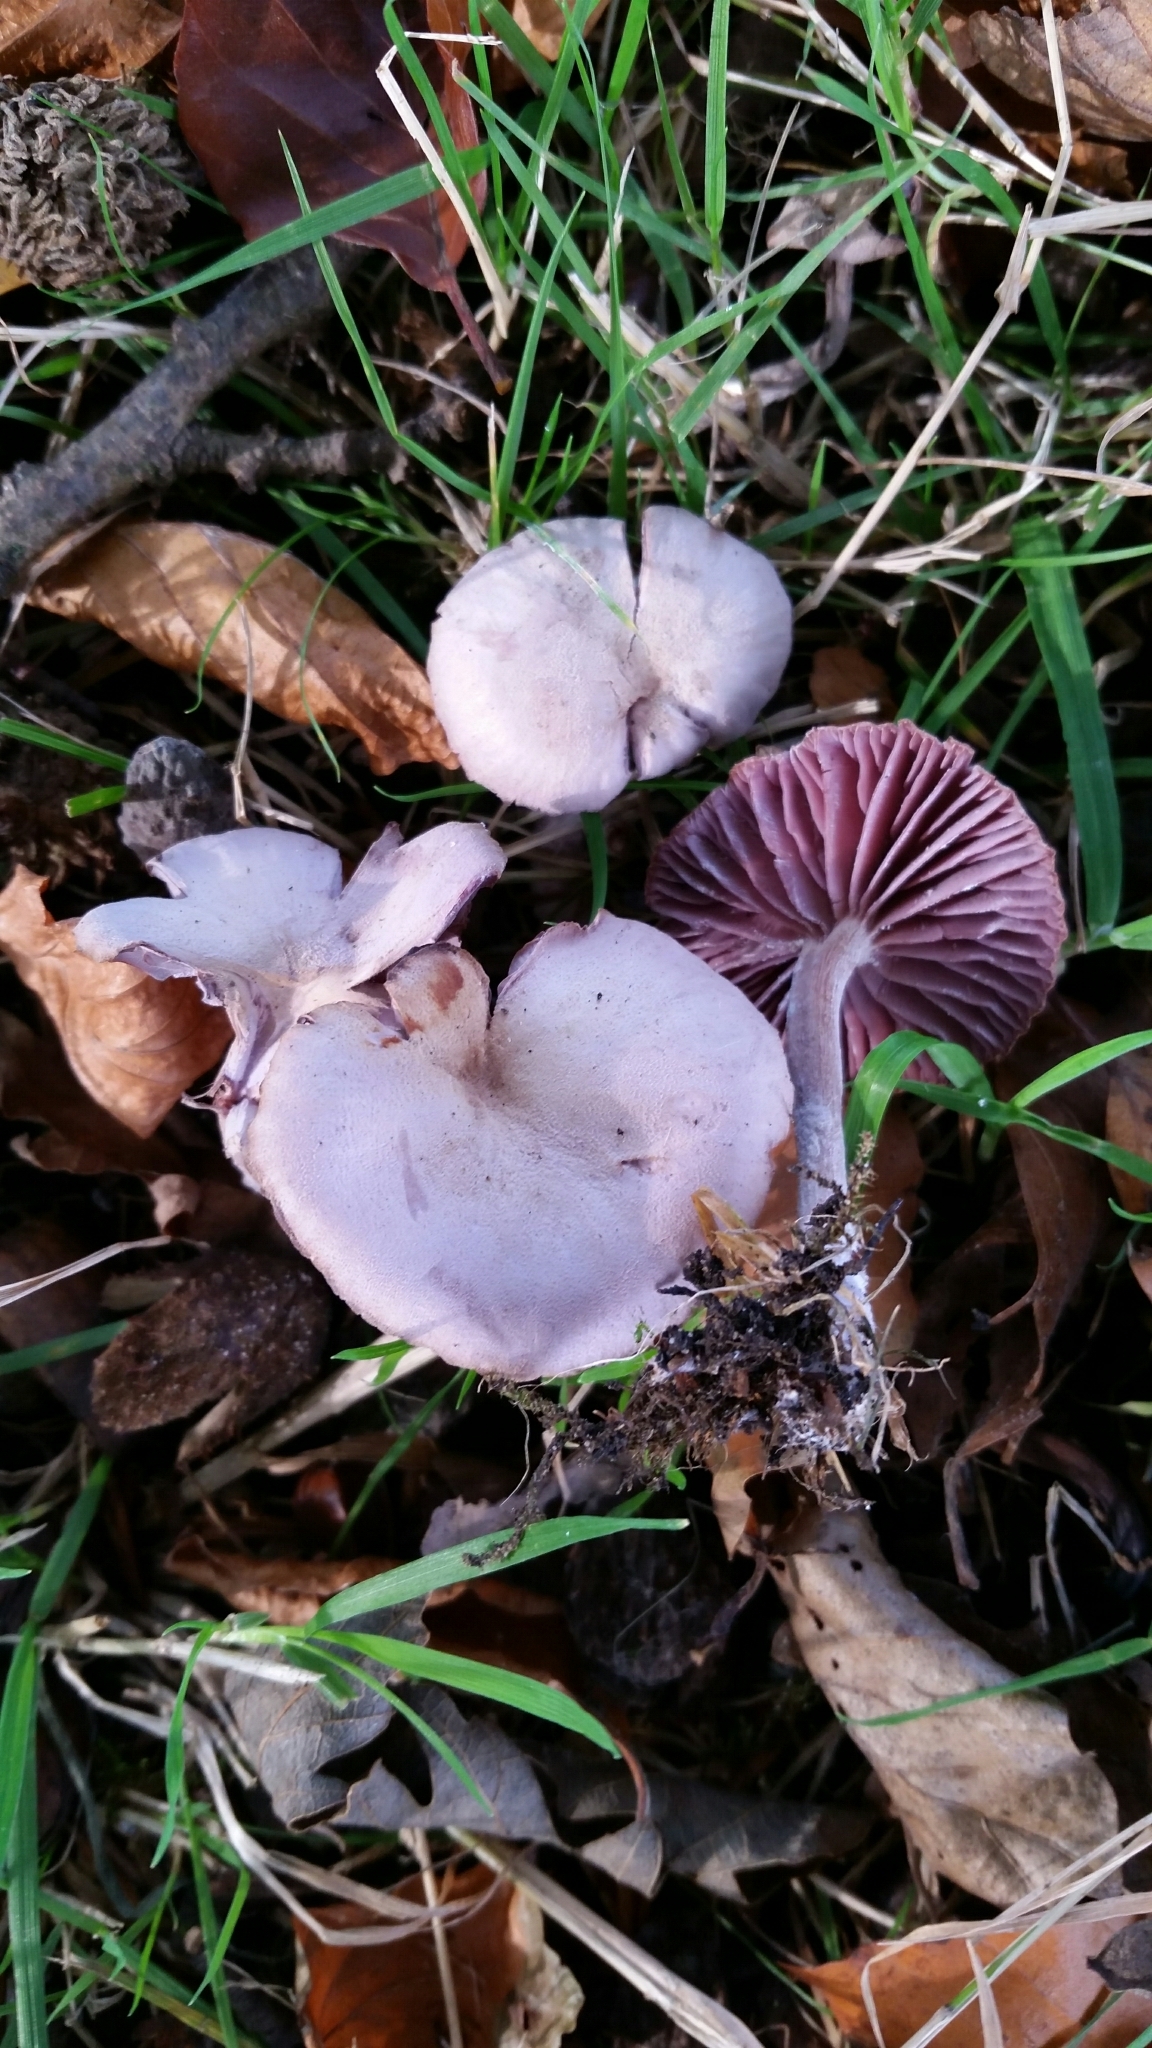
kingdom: Fungi
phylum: Basidiomycota
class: Agaricomycetes
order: Agaricales
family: Hydnangiaceae
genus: Laccaria
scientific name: Laccaria amethystina
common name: Amethyst deceiver
